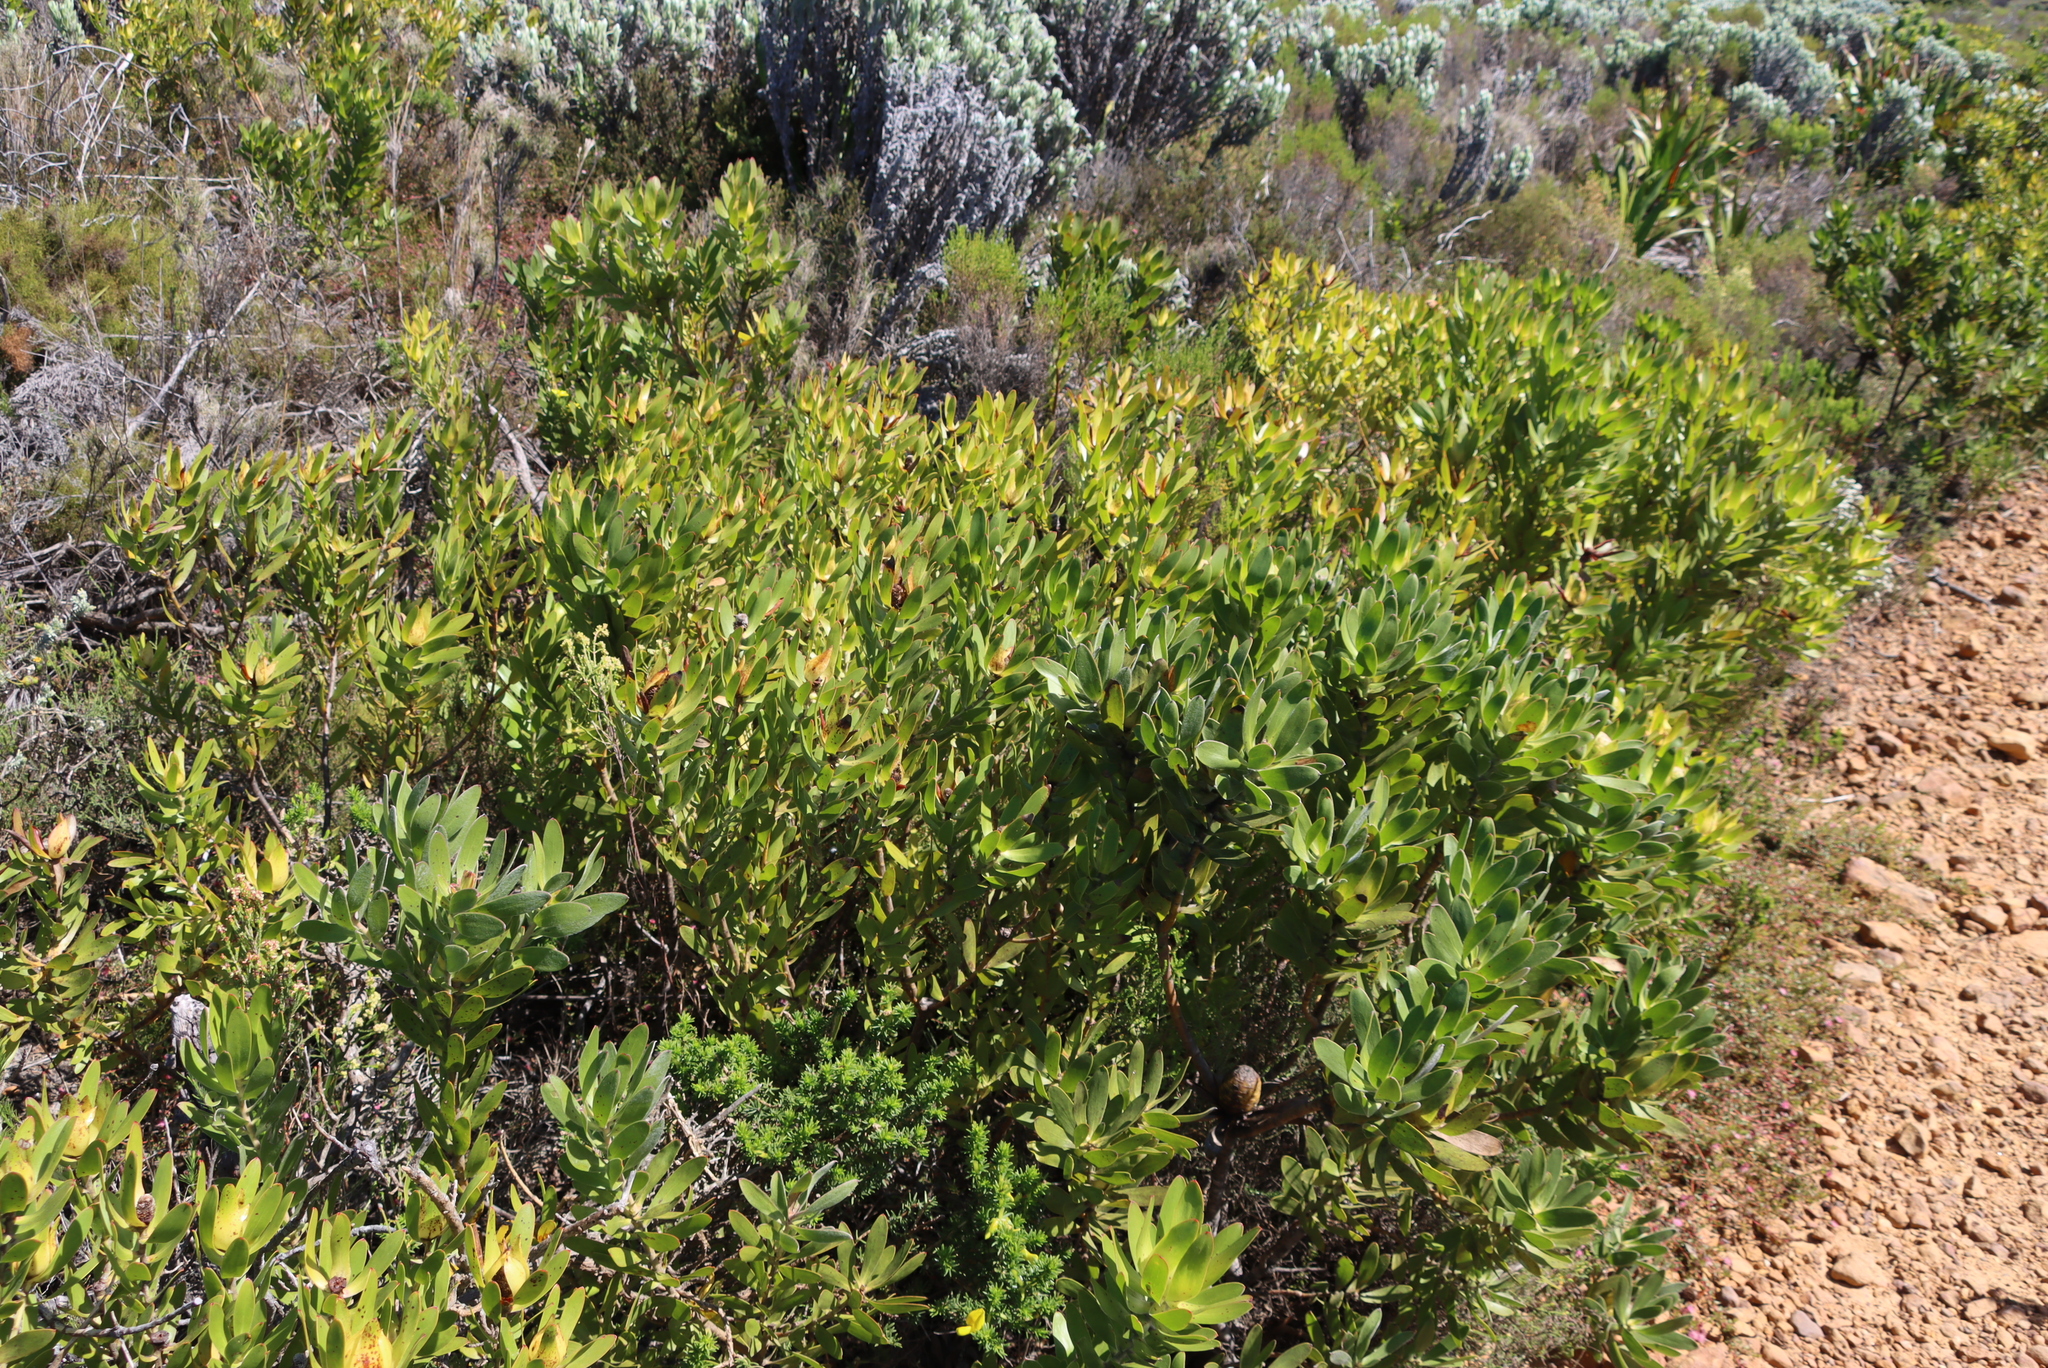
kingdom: Plantae
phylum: Tracheophyta
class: Magnoliopsida
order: Proteales
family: Proteaceae
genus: Leucadendron
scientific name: Leucadendron laureolum
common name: Golden sunshinebush
